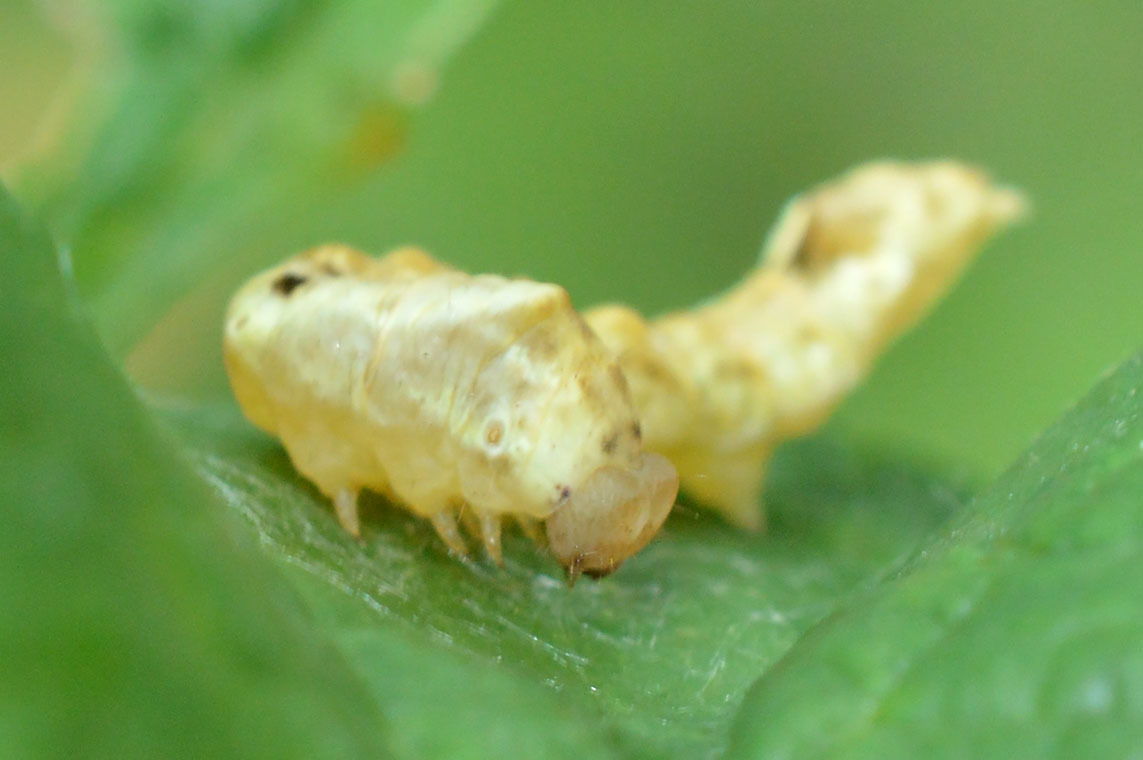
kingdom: Animalia
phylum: Arthropoda
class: Insecta
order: Lepidoptera
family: Drepanidae
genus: Thyatira
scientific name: Thyatira batis
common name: Peach blossom
